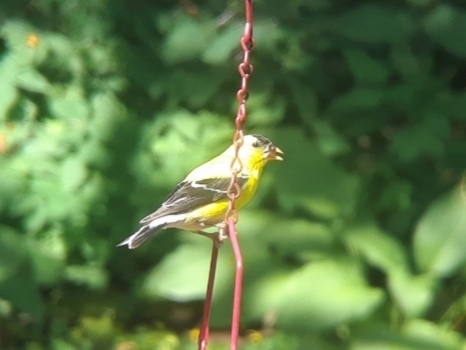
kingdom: Animalia
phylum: Chordata
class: Aves
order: Passeriformes
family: Fringillidae
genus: Spinus
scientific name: Spinus tristis
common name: American goldfinch
